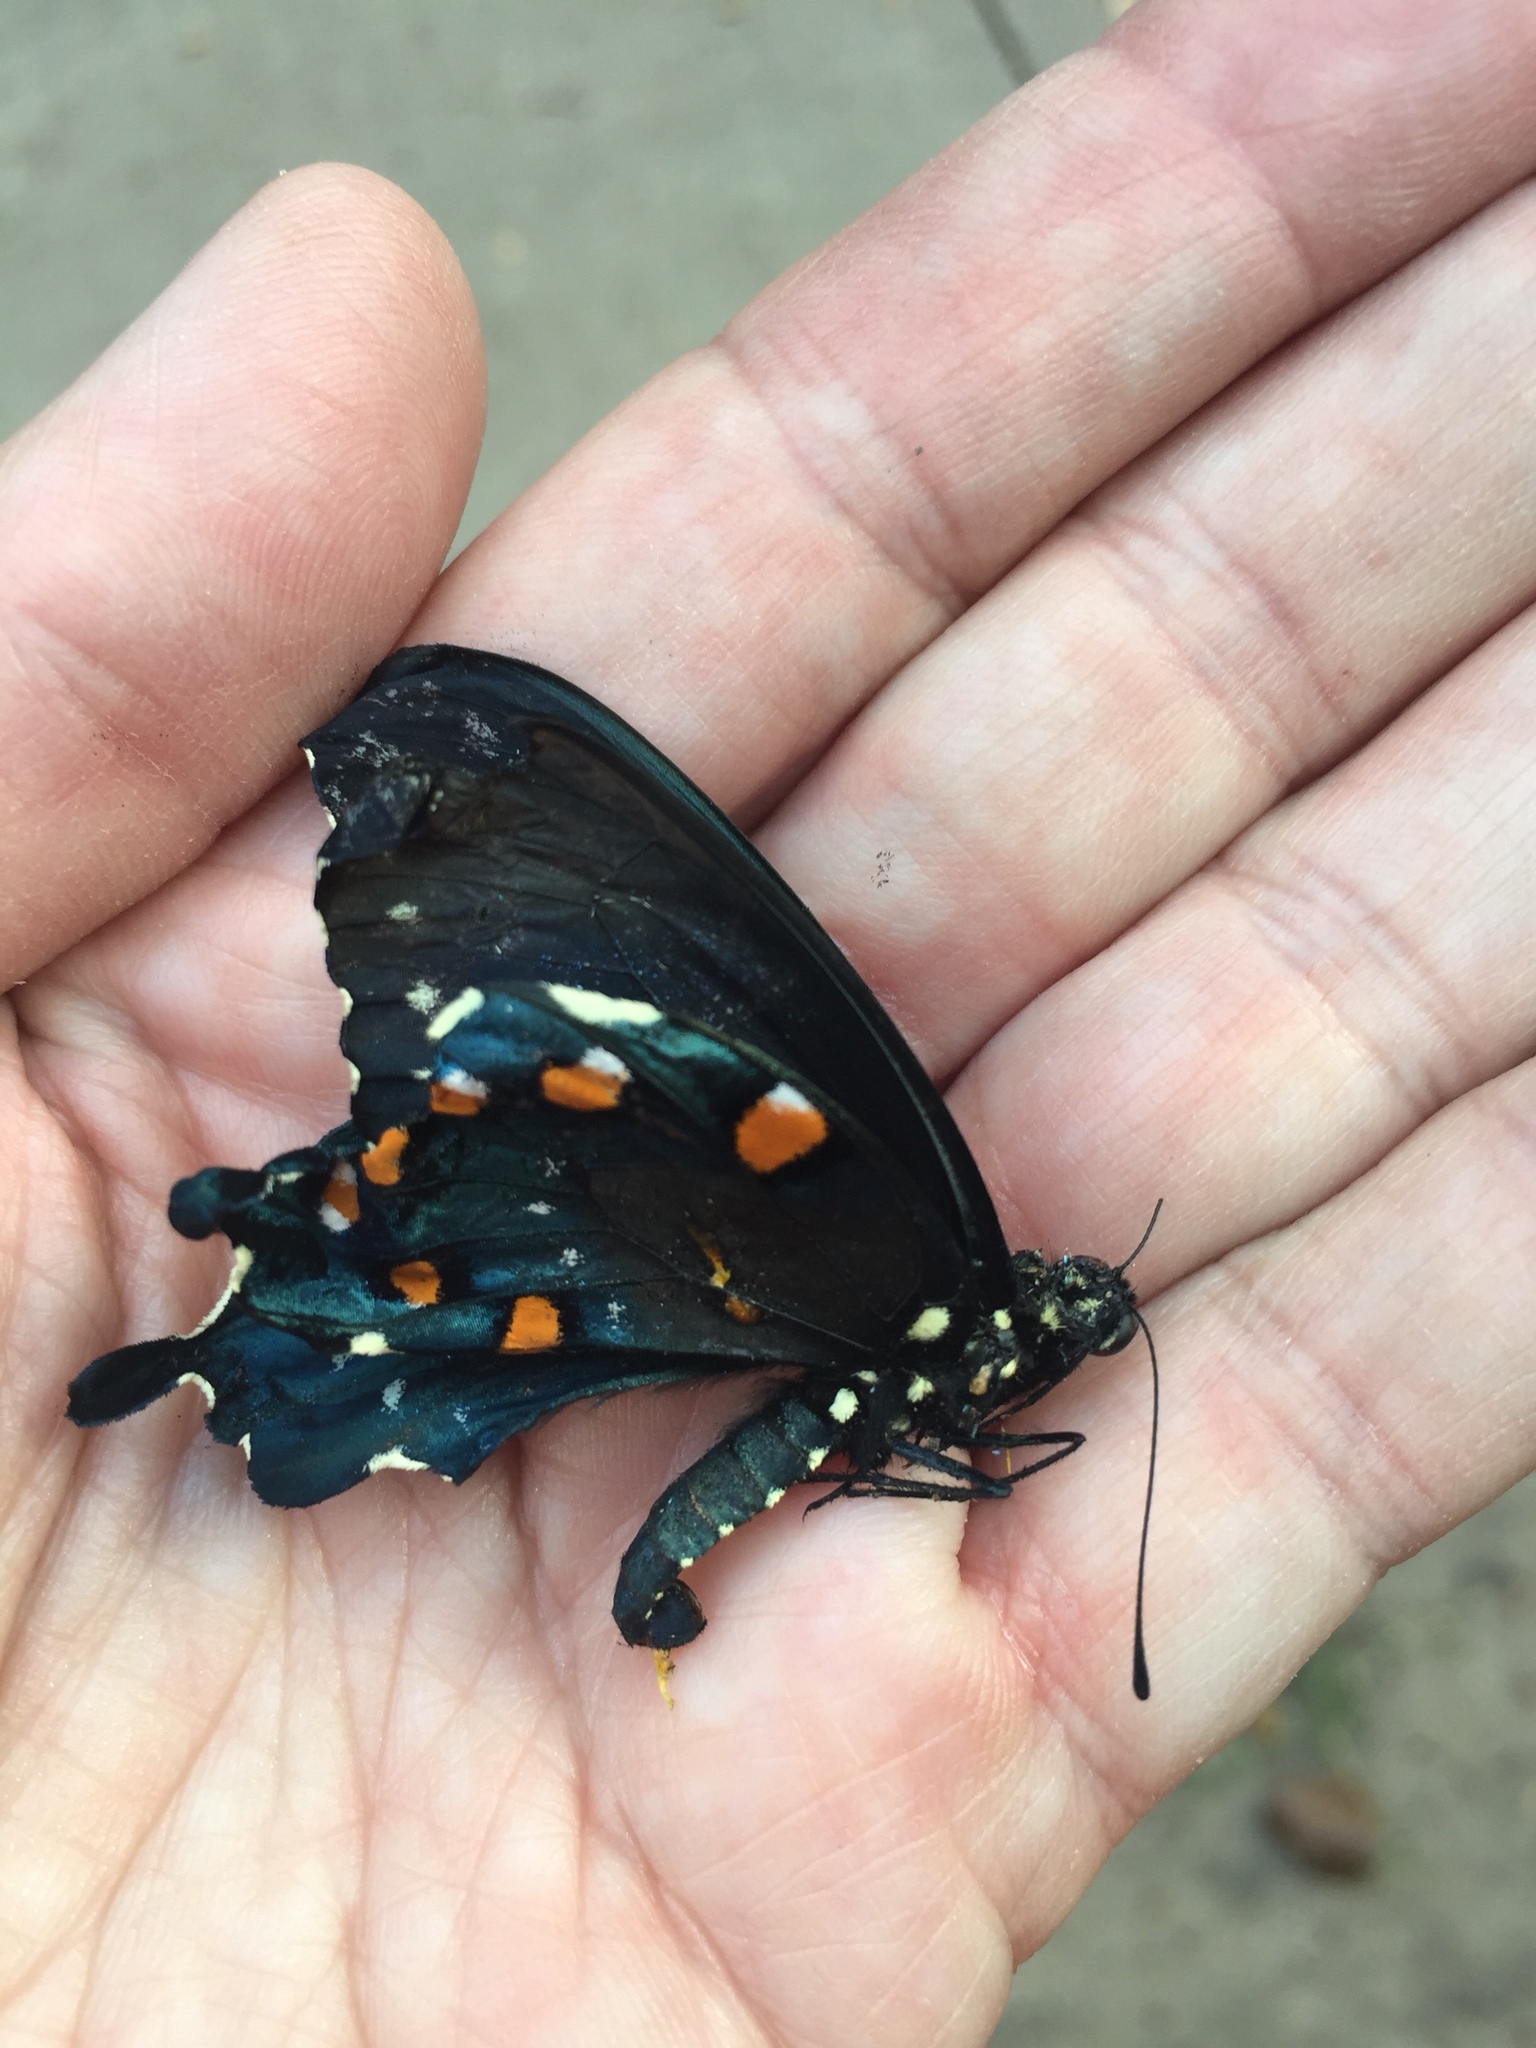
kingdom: Animalia
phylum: Arthropoda
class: Insecta
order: Lepidoptera
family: Papilionidae
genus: Battus
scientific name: Battus philenor
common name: Pipevine swallowtail
